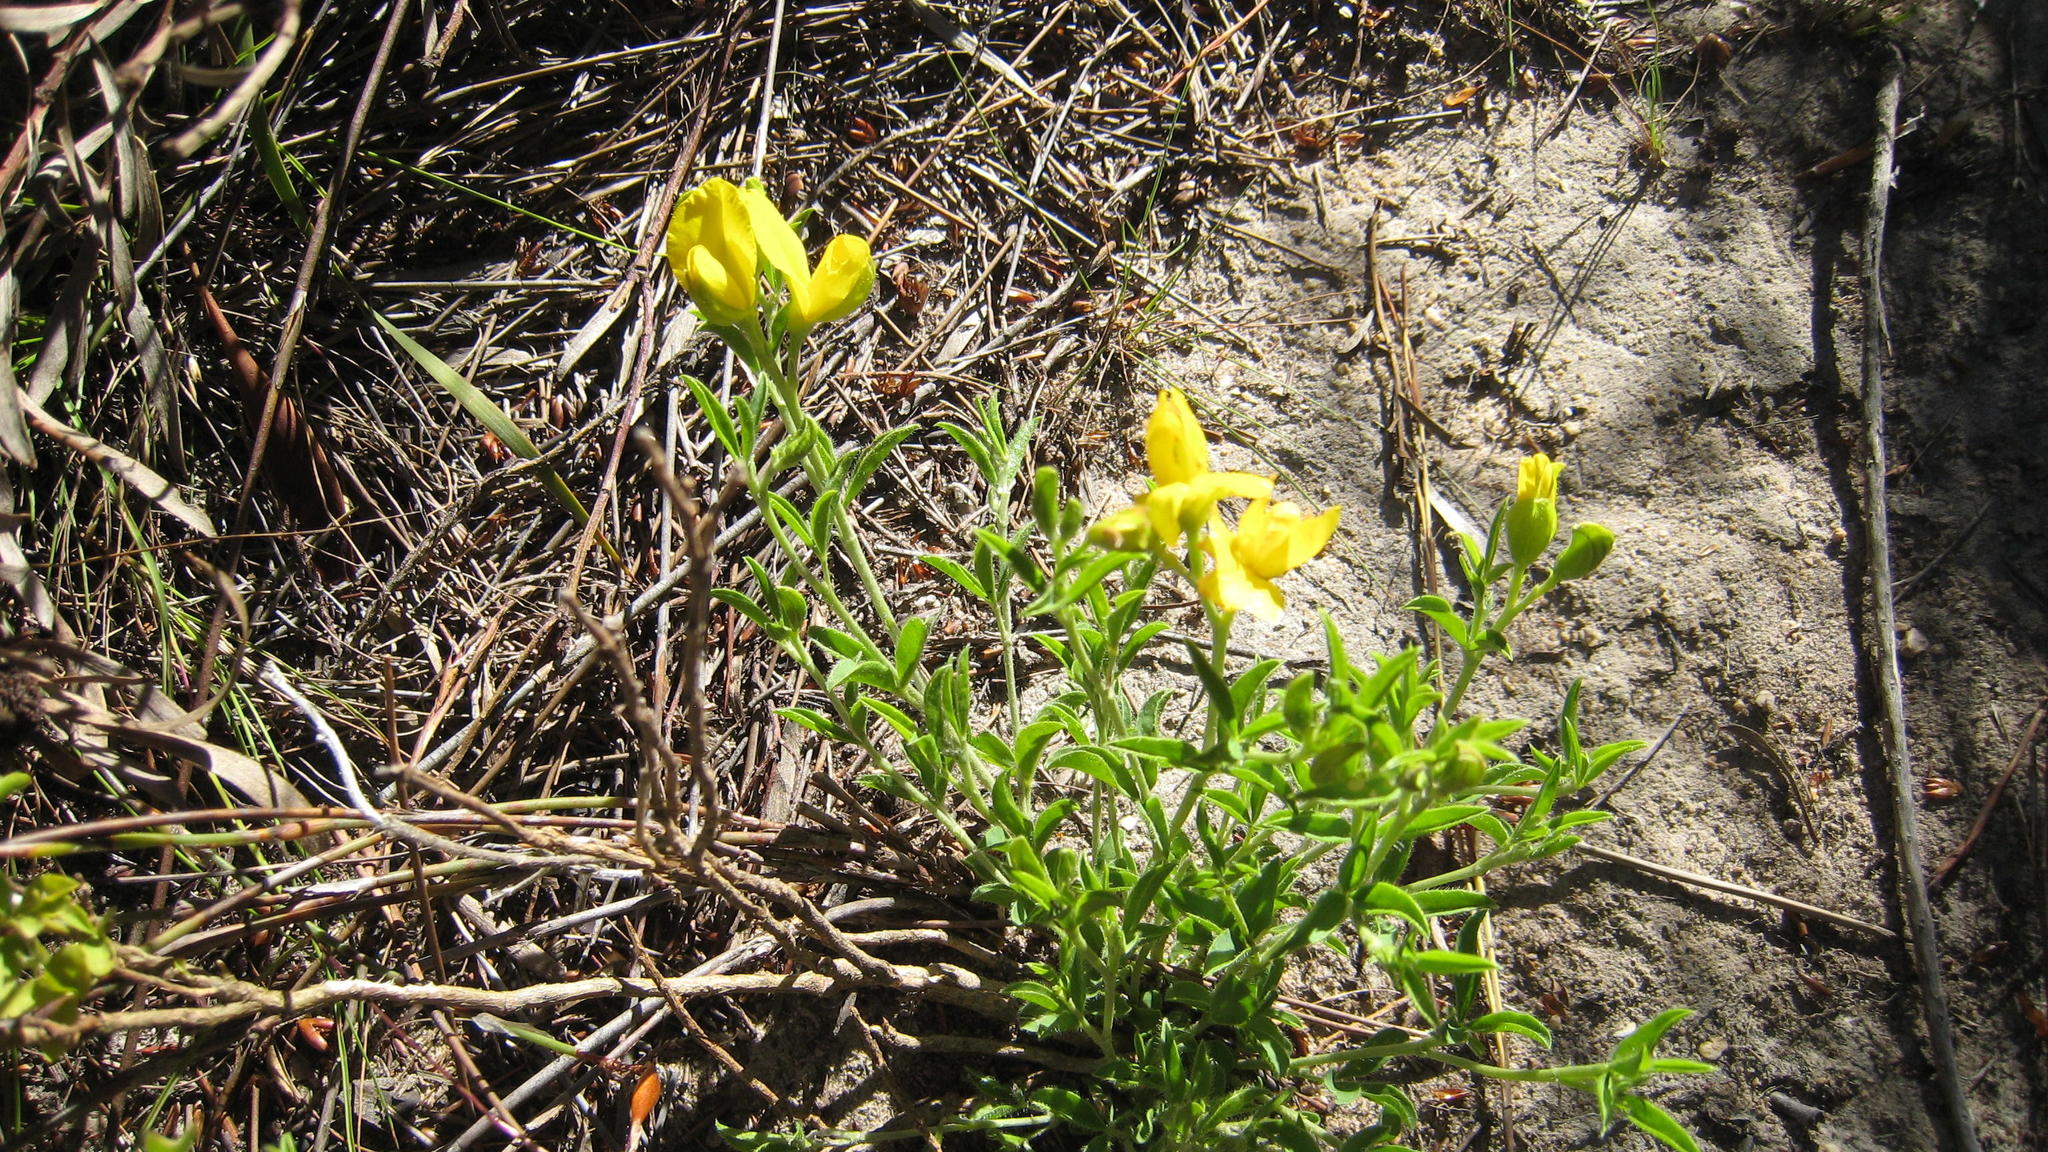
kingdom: Plantae
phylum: Tracheophyta
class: Magnoliopsida
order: Fabales
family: Fabaceae
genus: Argyrolobium
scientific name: Argyrolobium pachyphyllum
